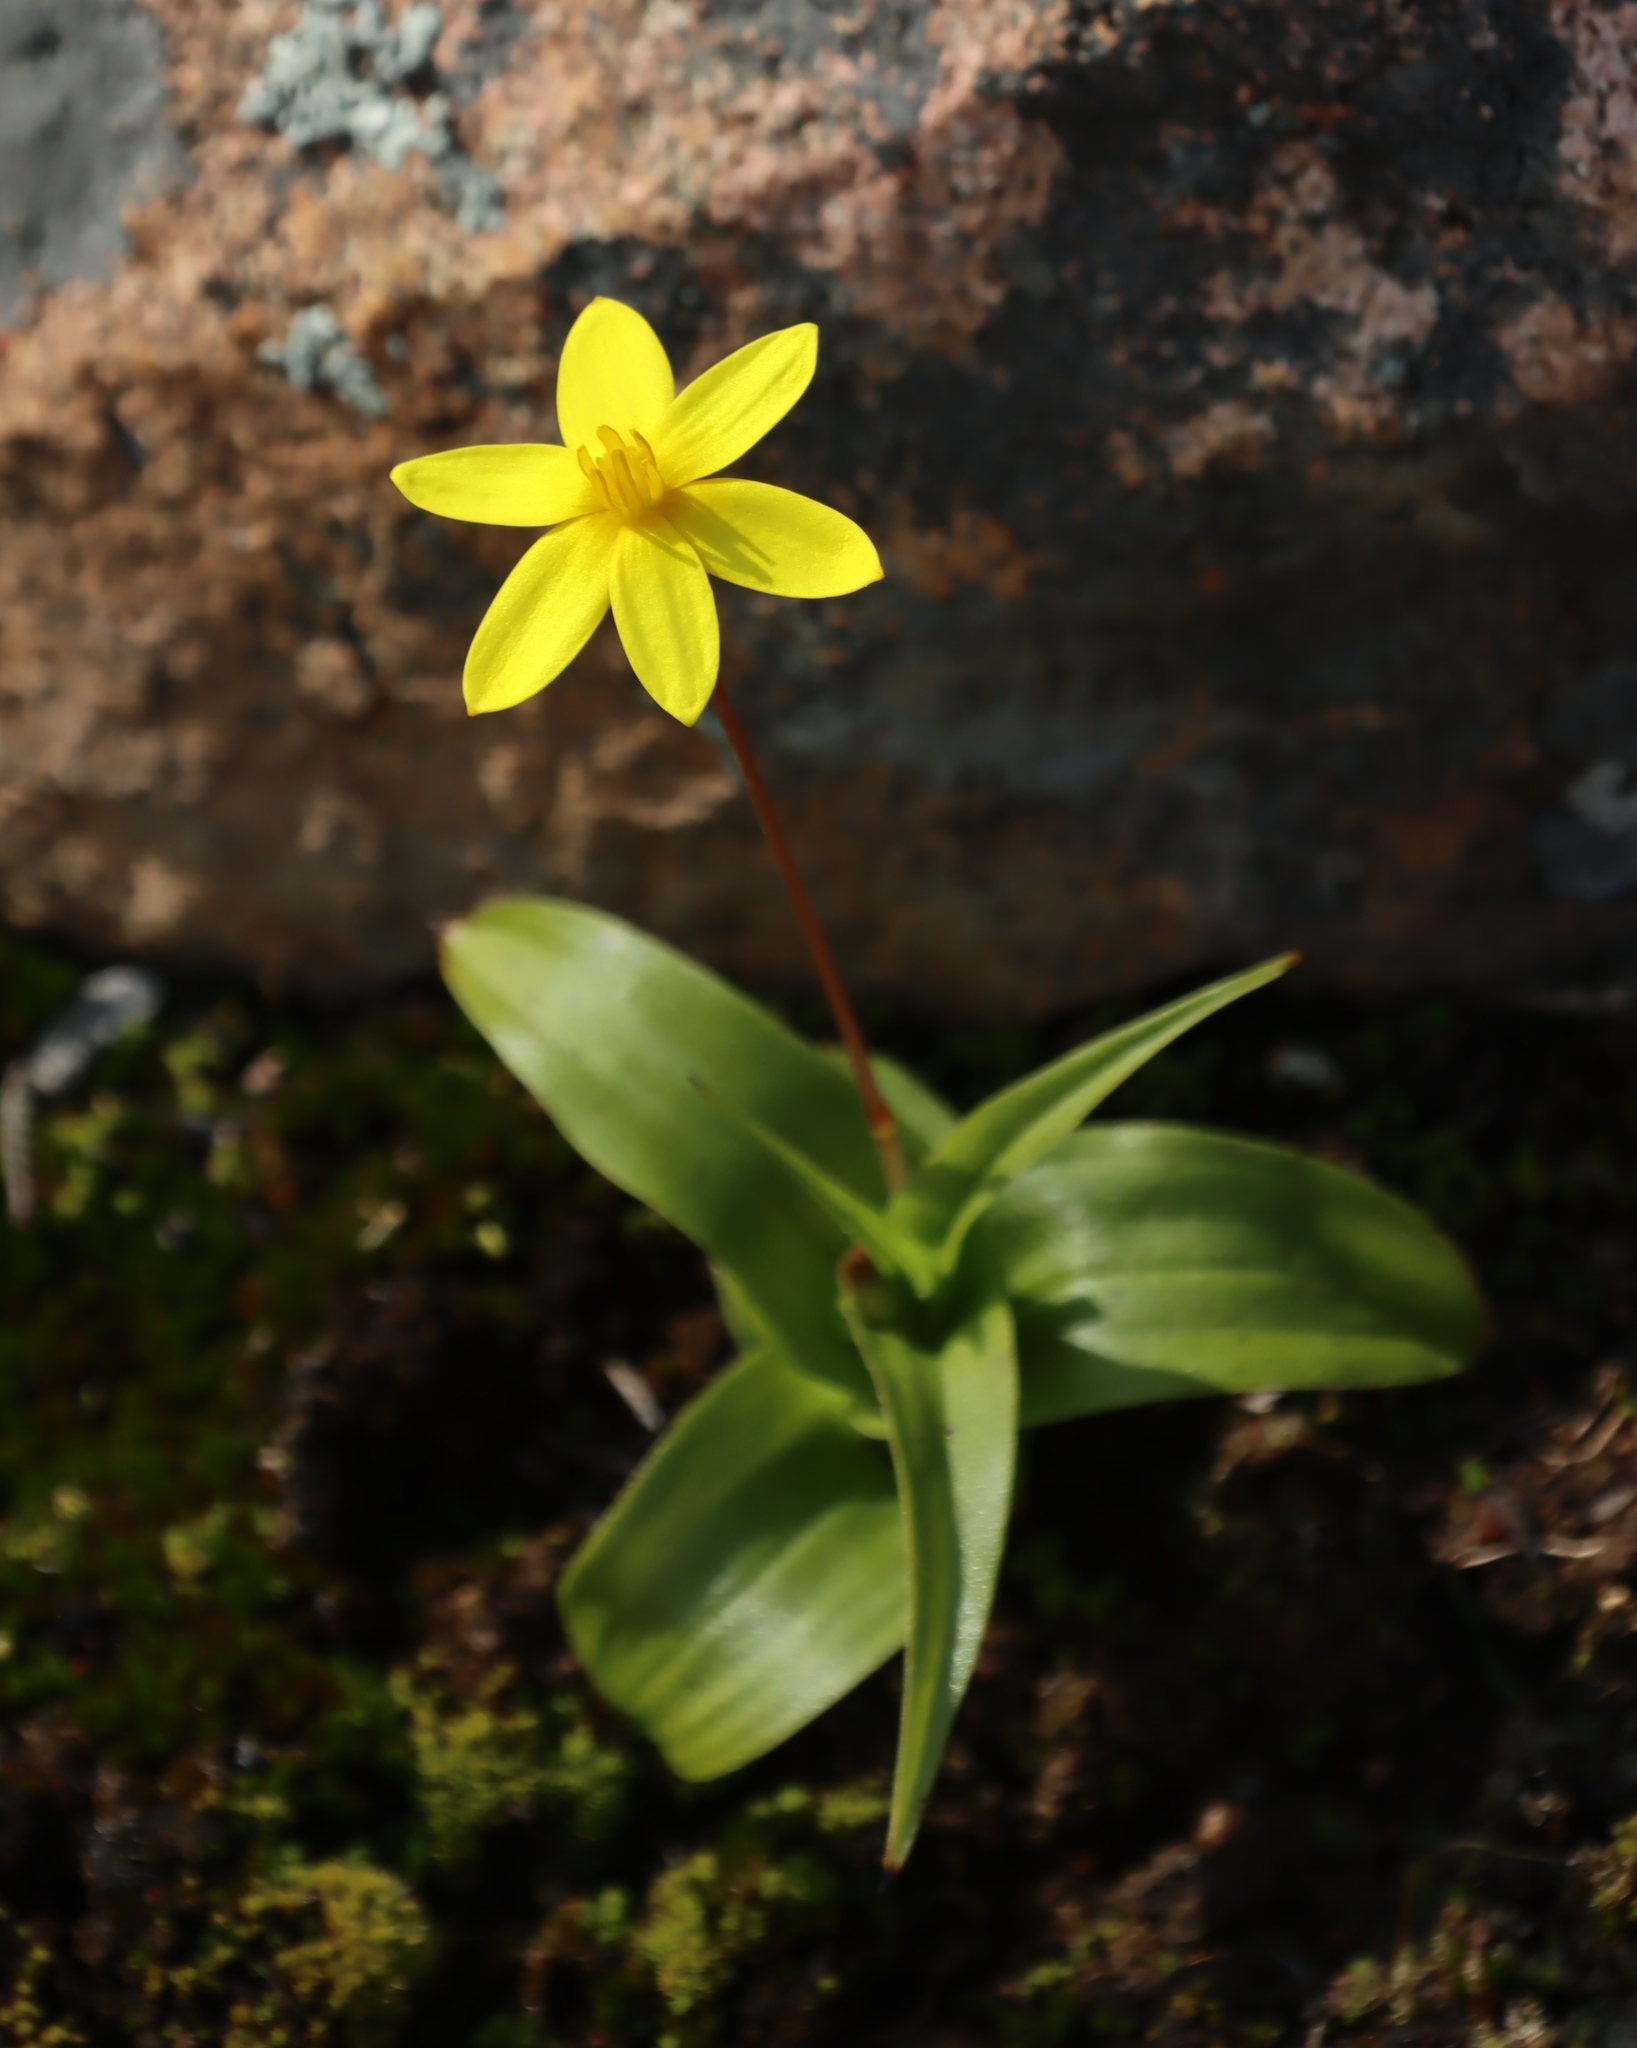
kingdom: Plantae
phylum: Tracheophyta
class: Liliopsida
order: Asparagales
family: Hypoxidaceae
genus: Pauridia
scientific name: Pauridia gracilipes
